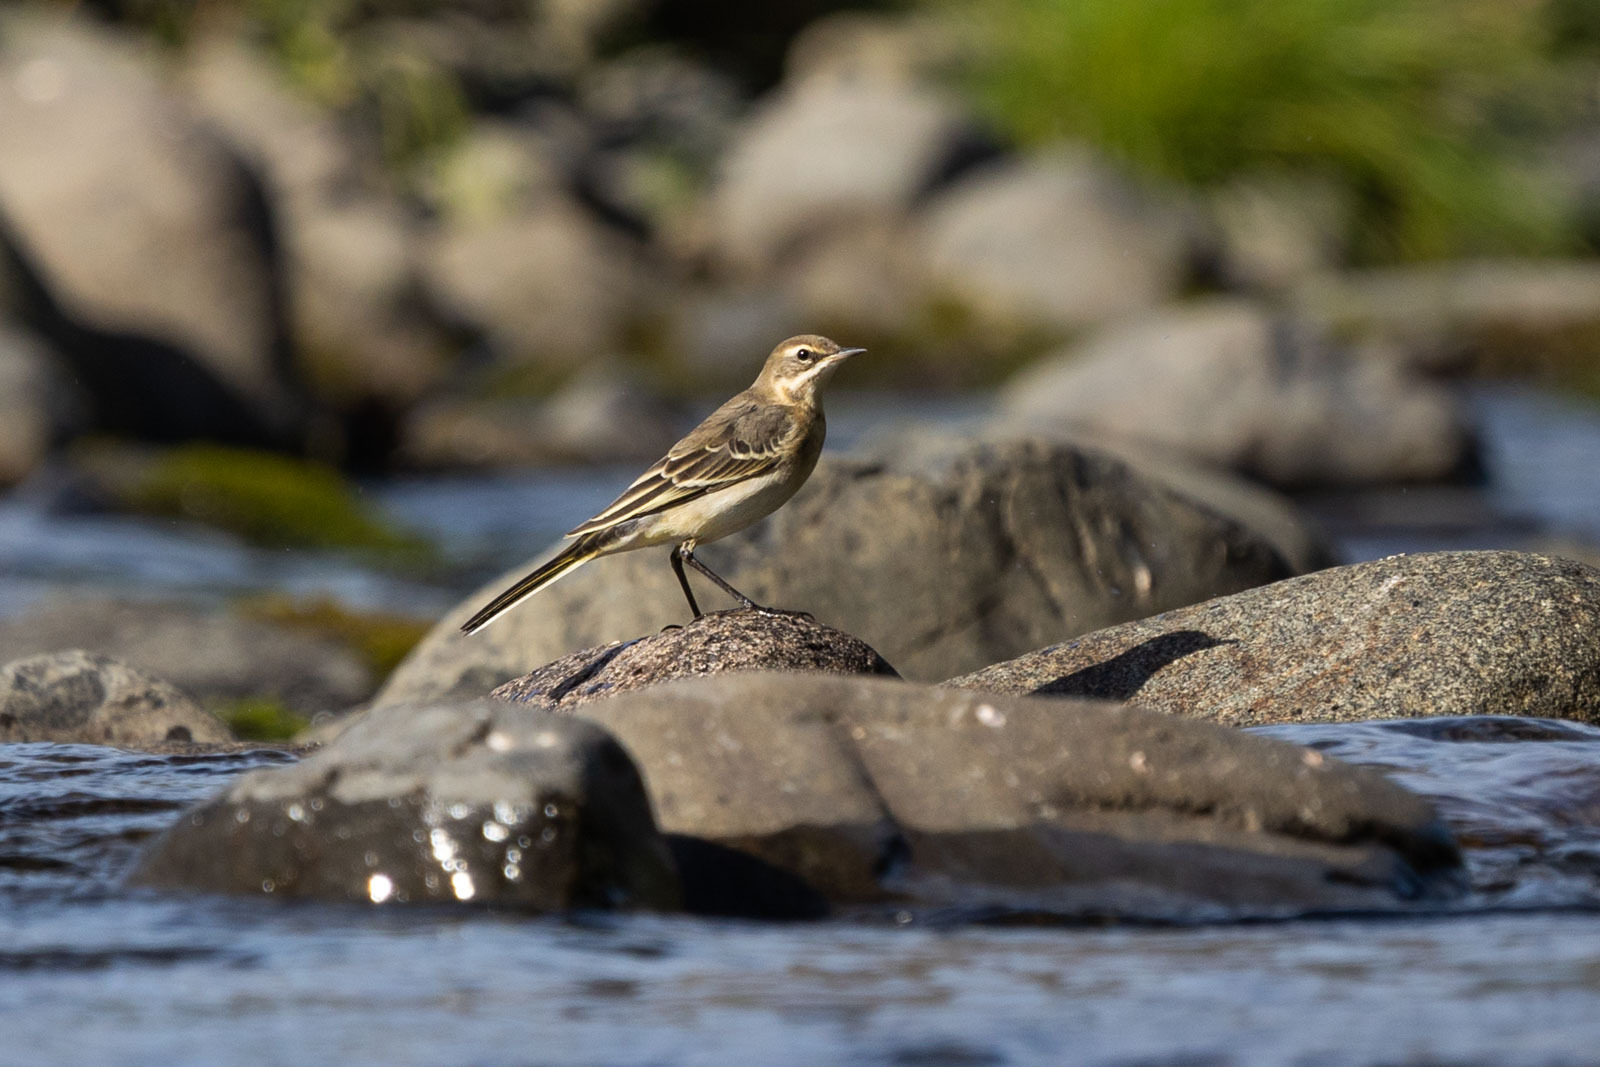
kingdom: Animalia
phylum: Chordata
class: Aves
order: Passeriformes
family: Motacillidae
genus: Motacilla
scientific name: Motacilla tschutschensis
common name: Eastern yellow wagtail
